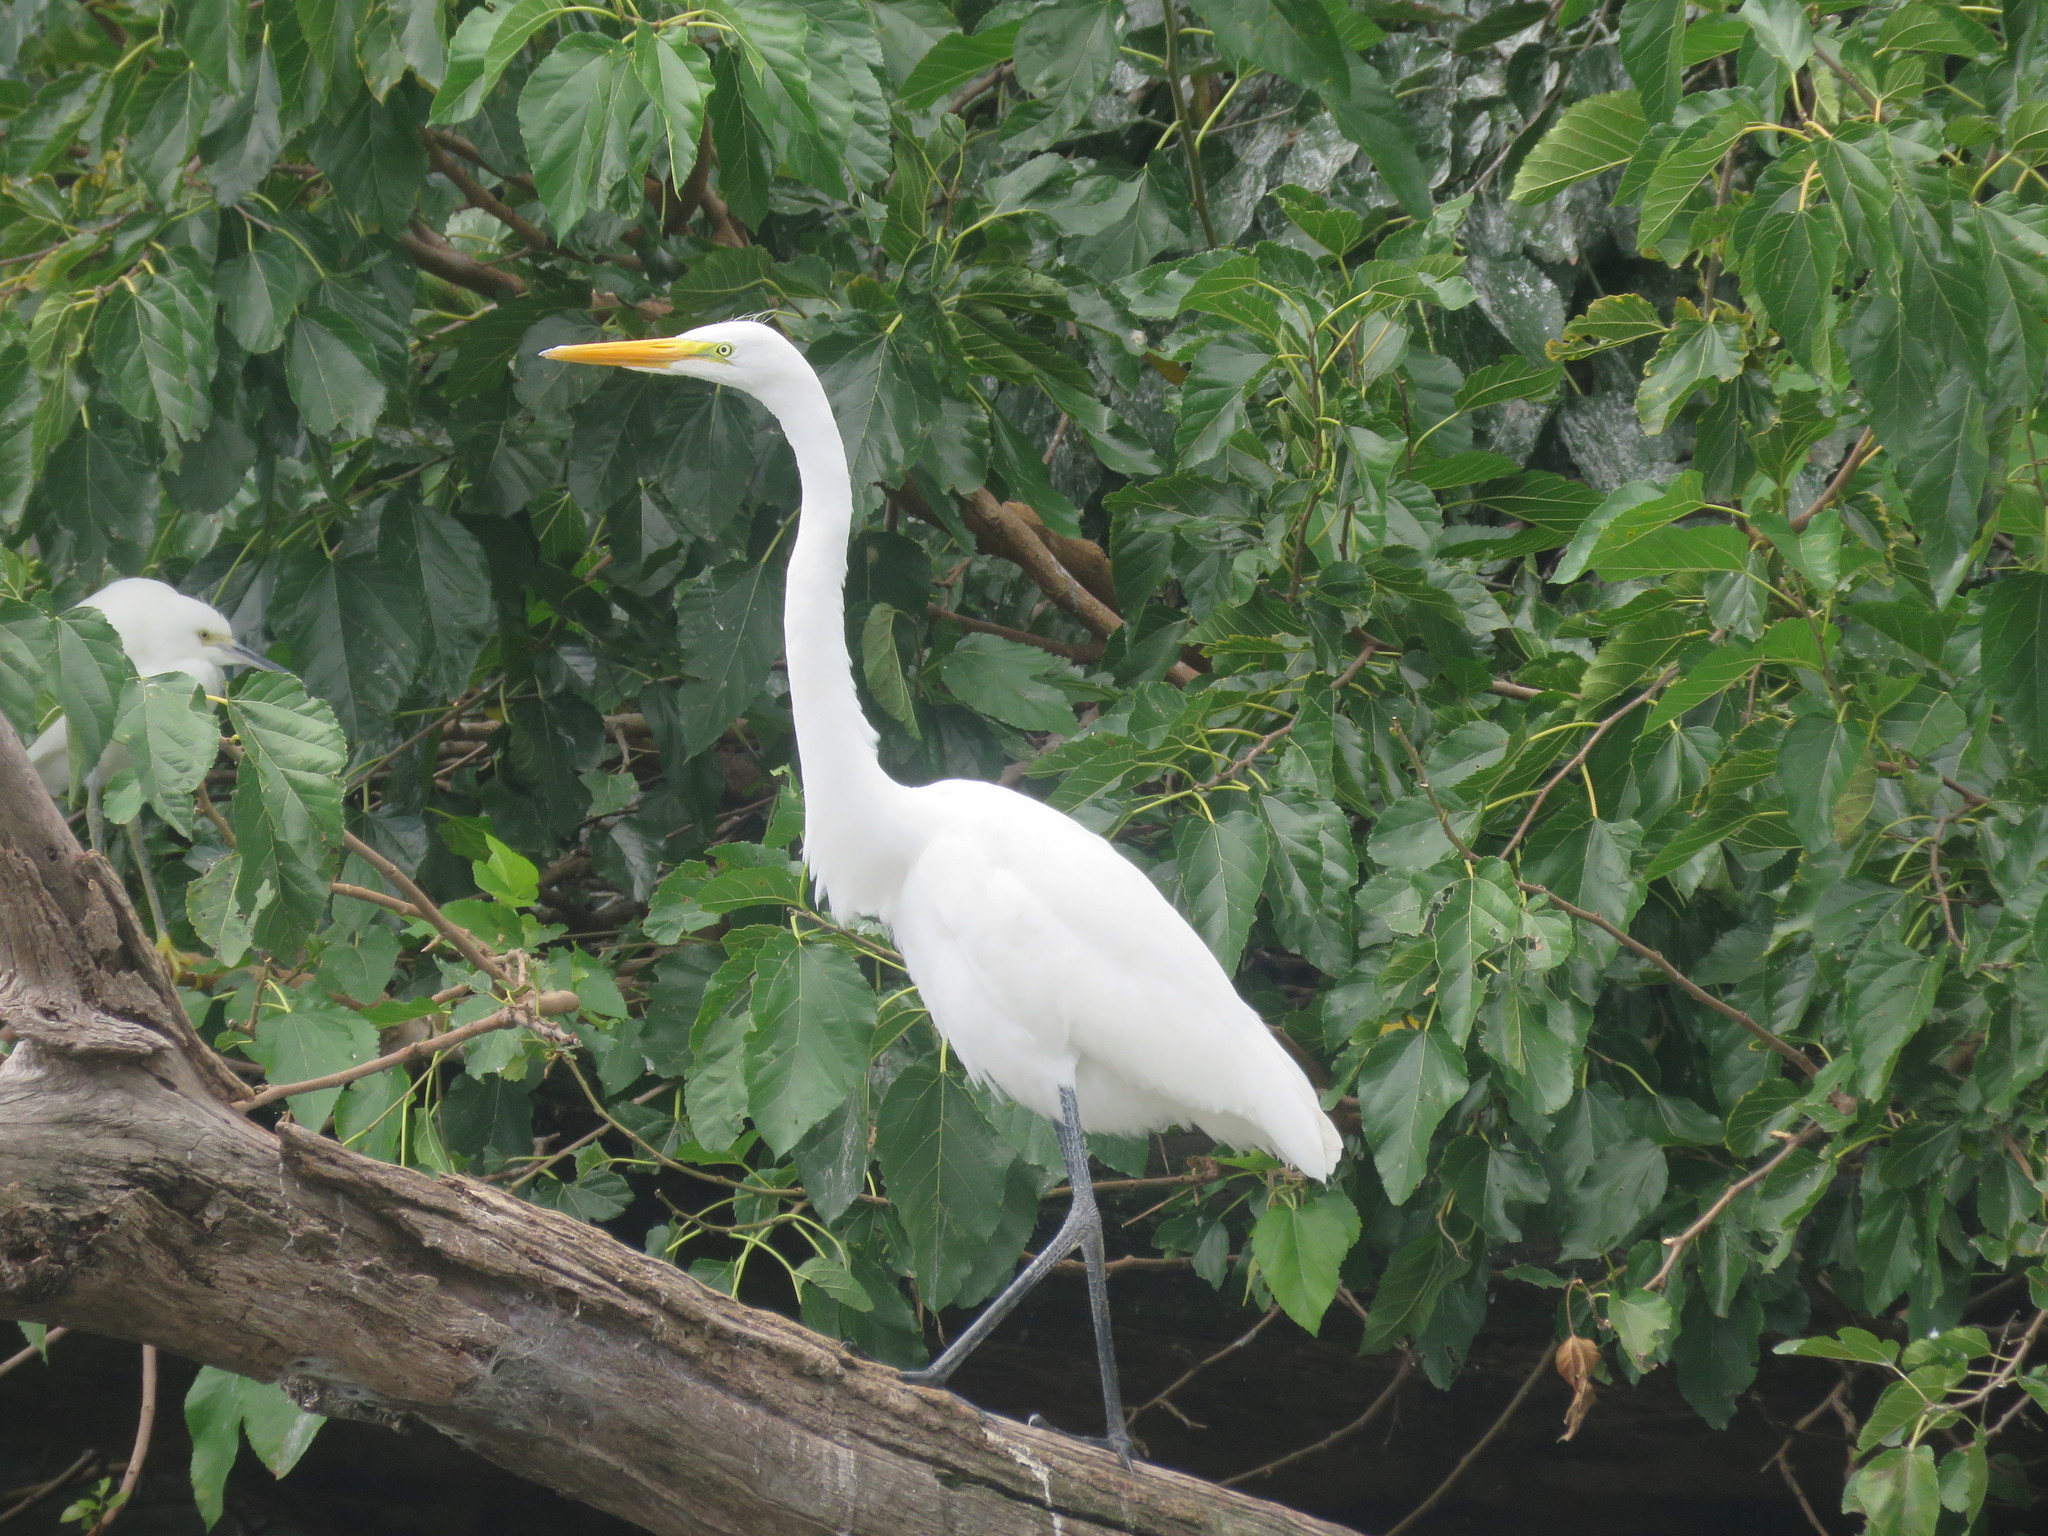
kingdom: Animalia
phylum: Chordata
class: Aves
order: Pelecaniformes
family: Ardeidae
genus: Ardea
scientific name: Ardea alba
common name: Great egret
